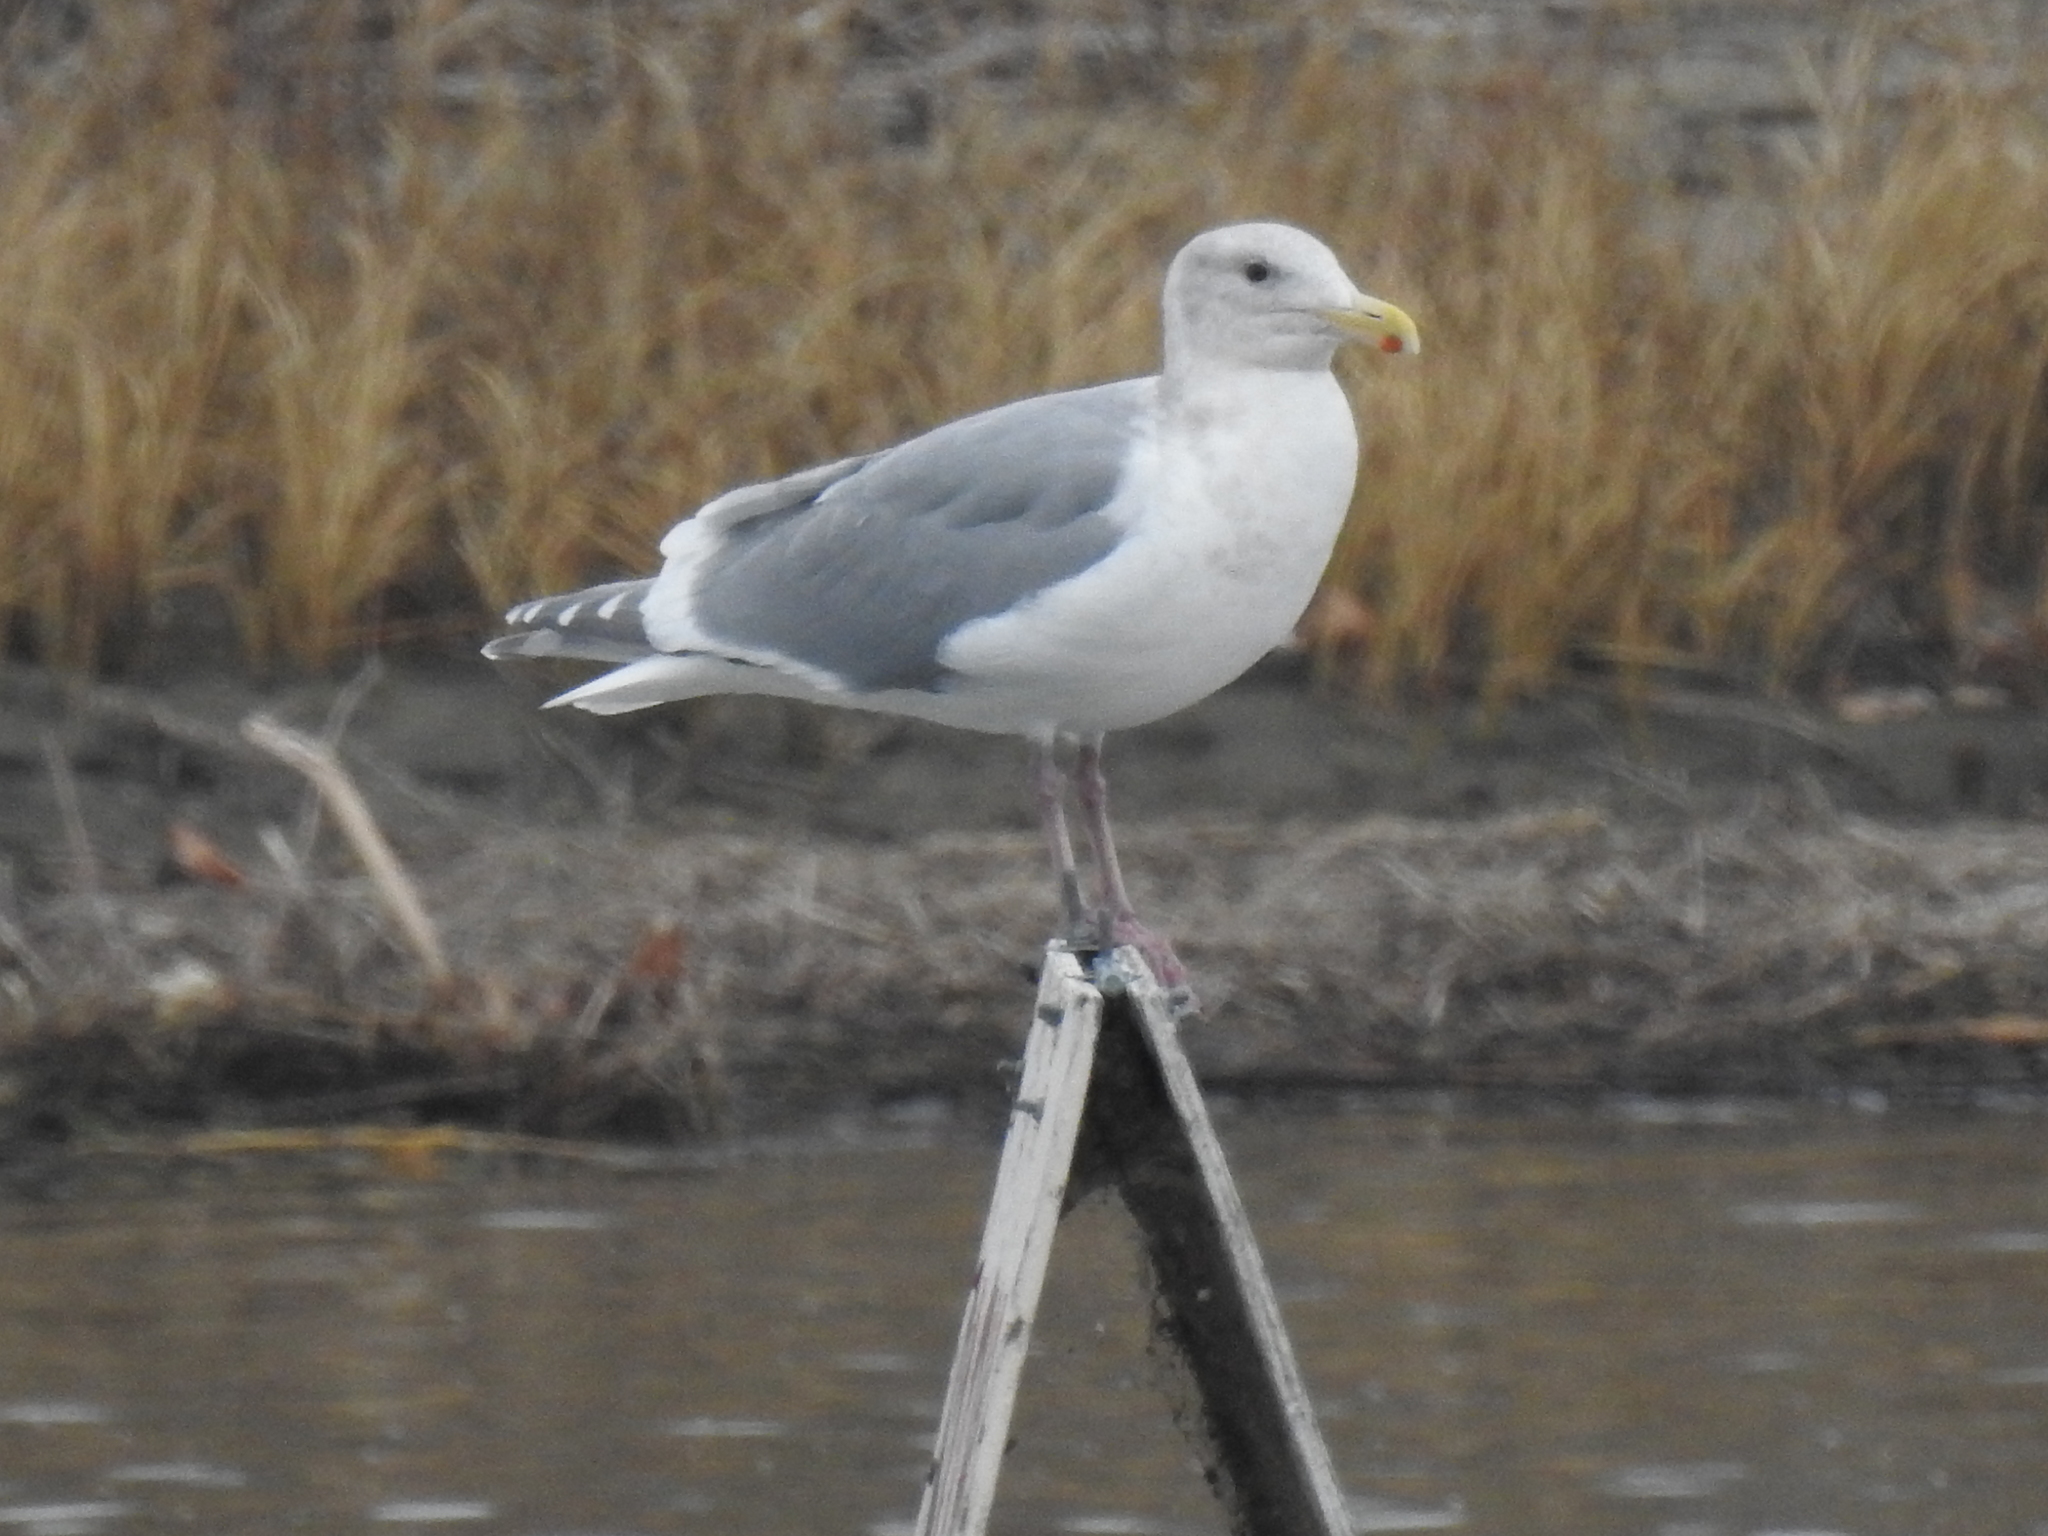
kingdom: Animalia
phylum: Chordata
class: Aves
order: Charadriiformes
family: Laridae
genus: Larus
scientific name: Larus glaucescens
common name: Glaucous-winged gull
